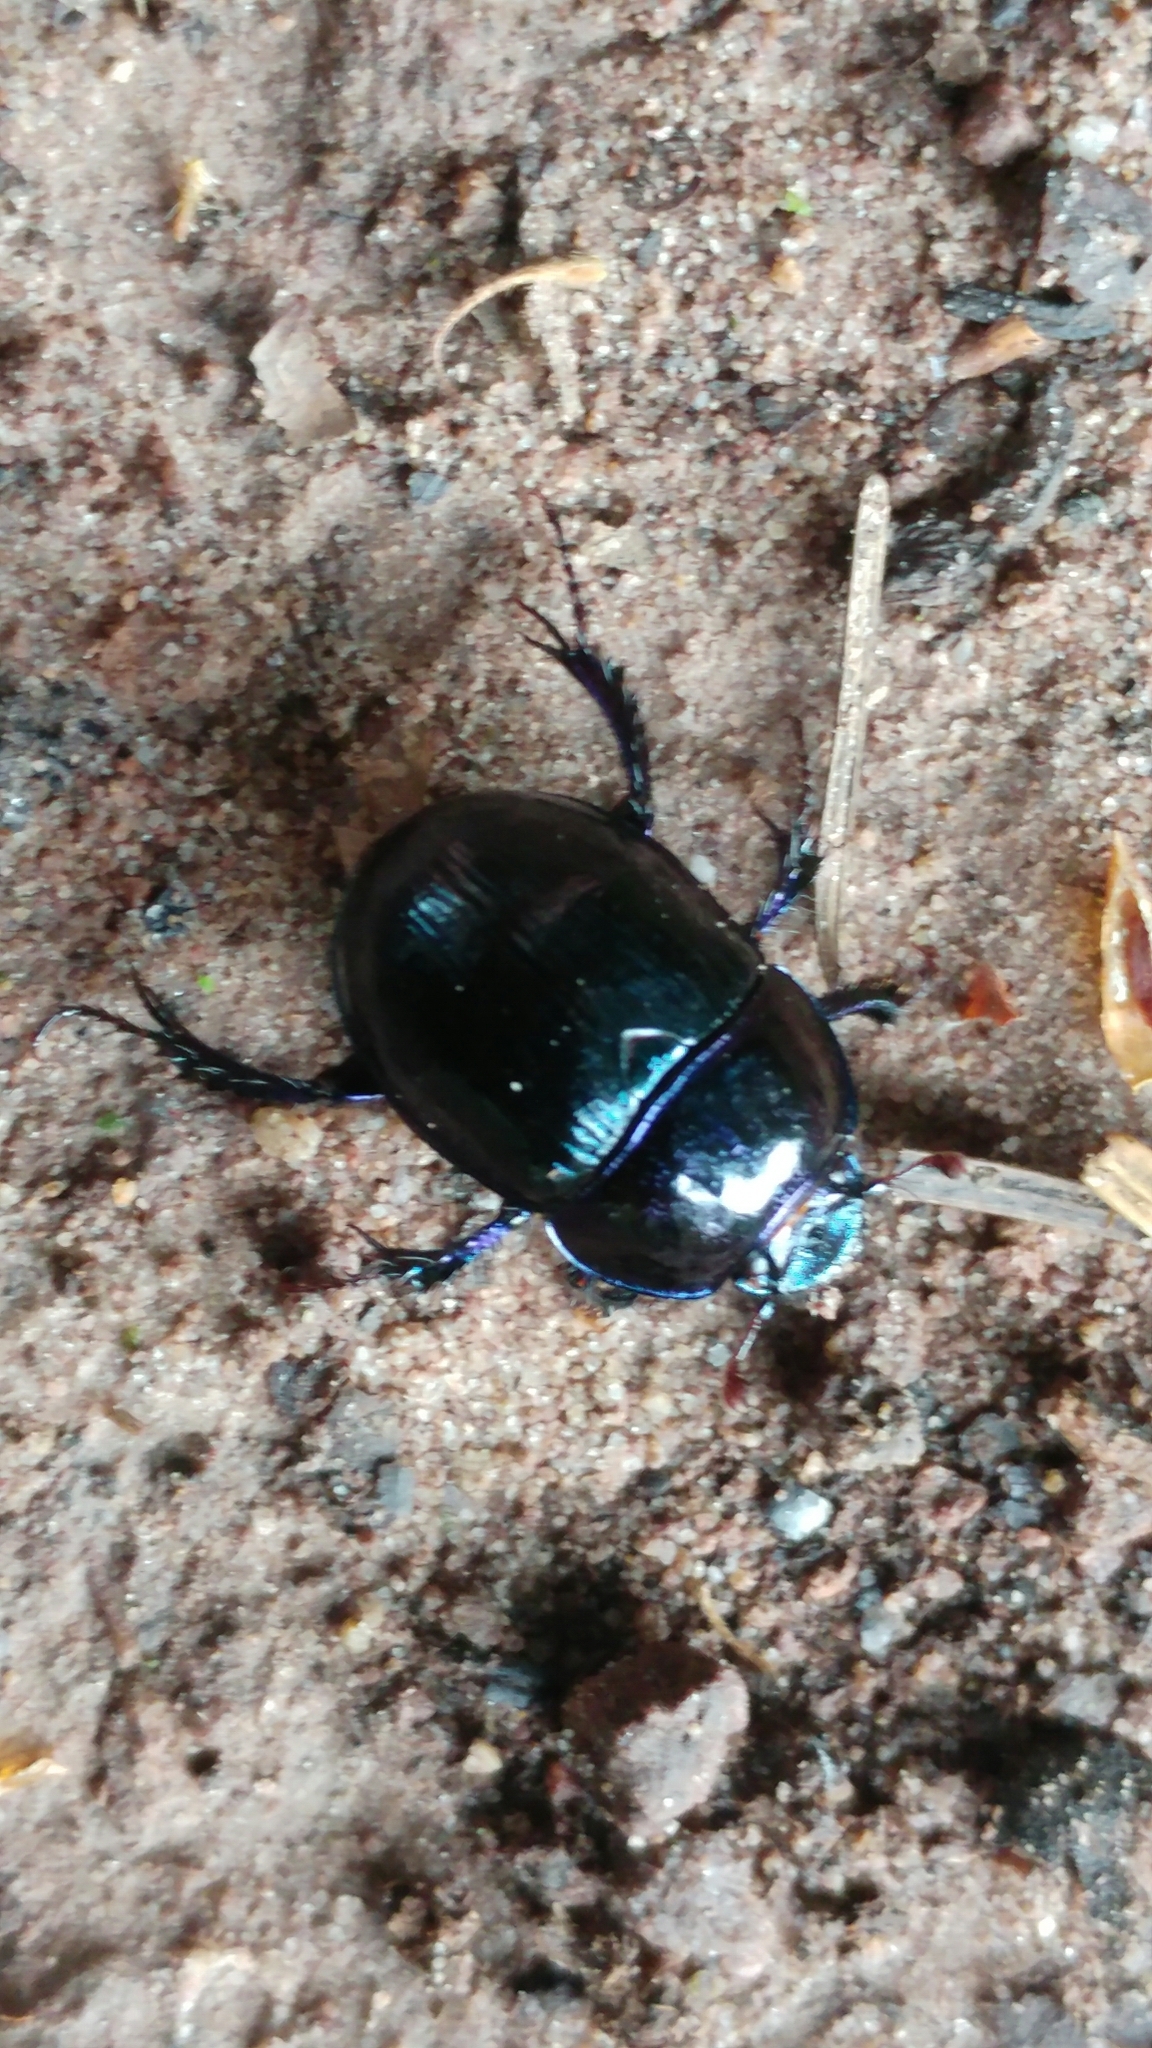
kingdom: Animalia
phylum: Arthropoda
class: Insecta
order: Coleoptera
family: Geotrupidae
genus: Anoplotrupes
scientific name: Anoplotrupes stercorosus
